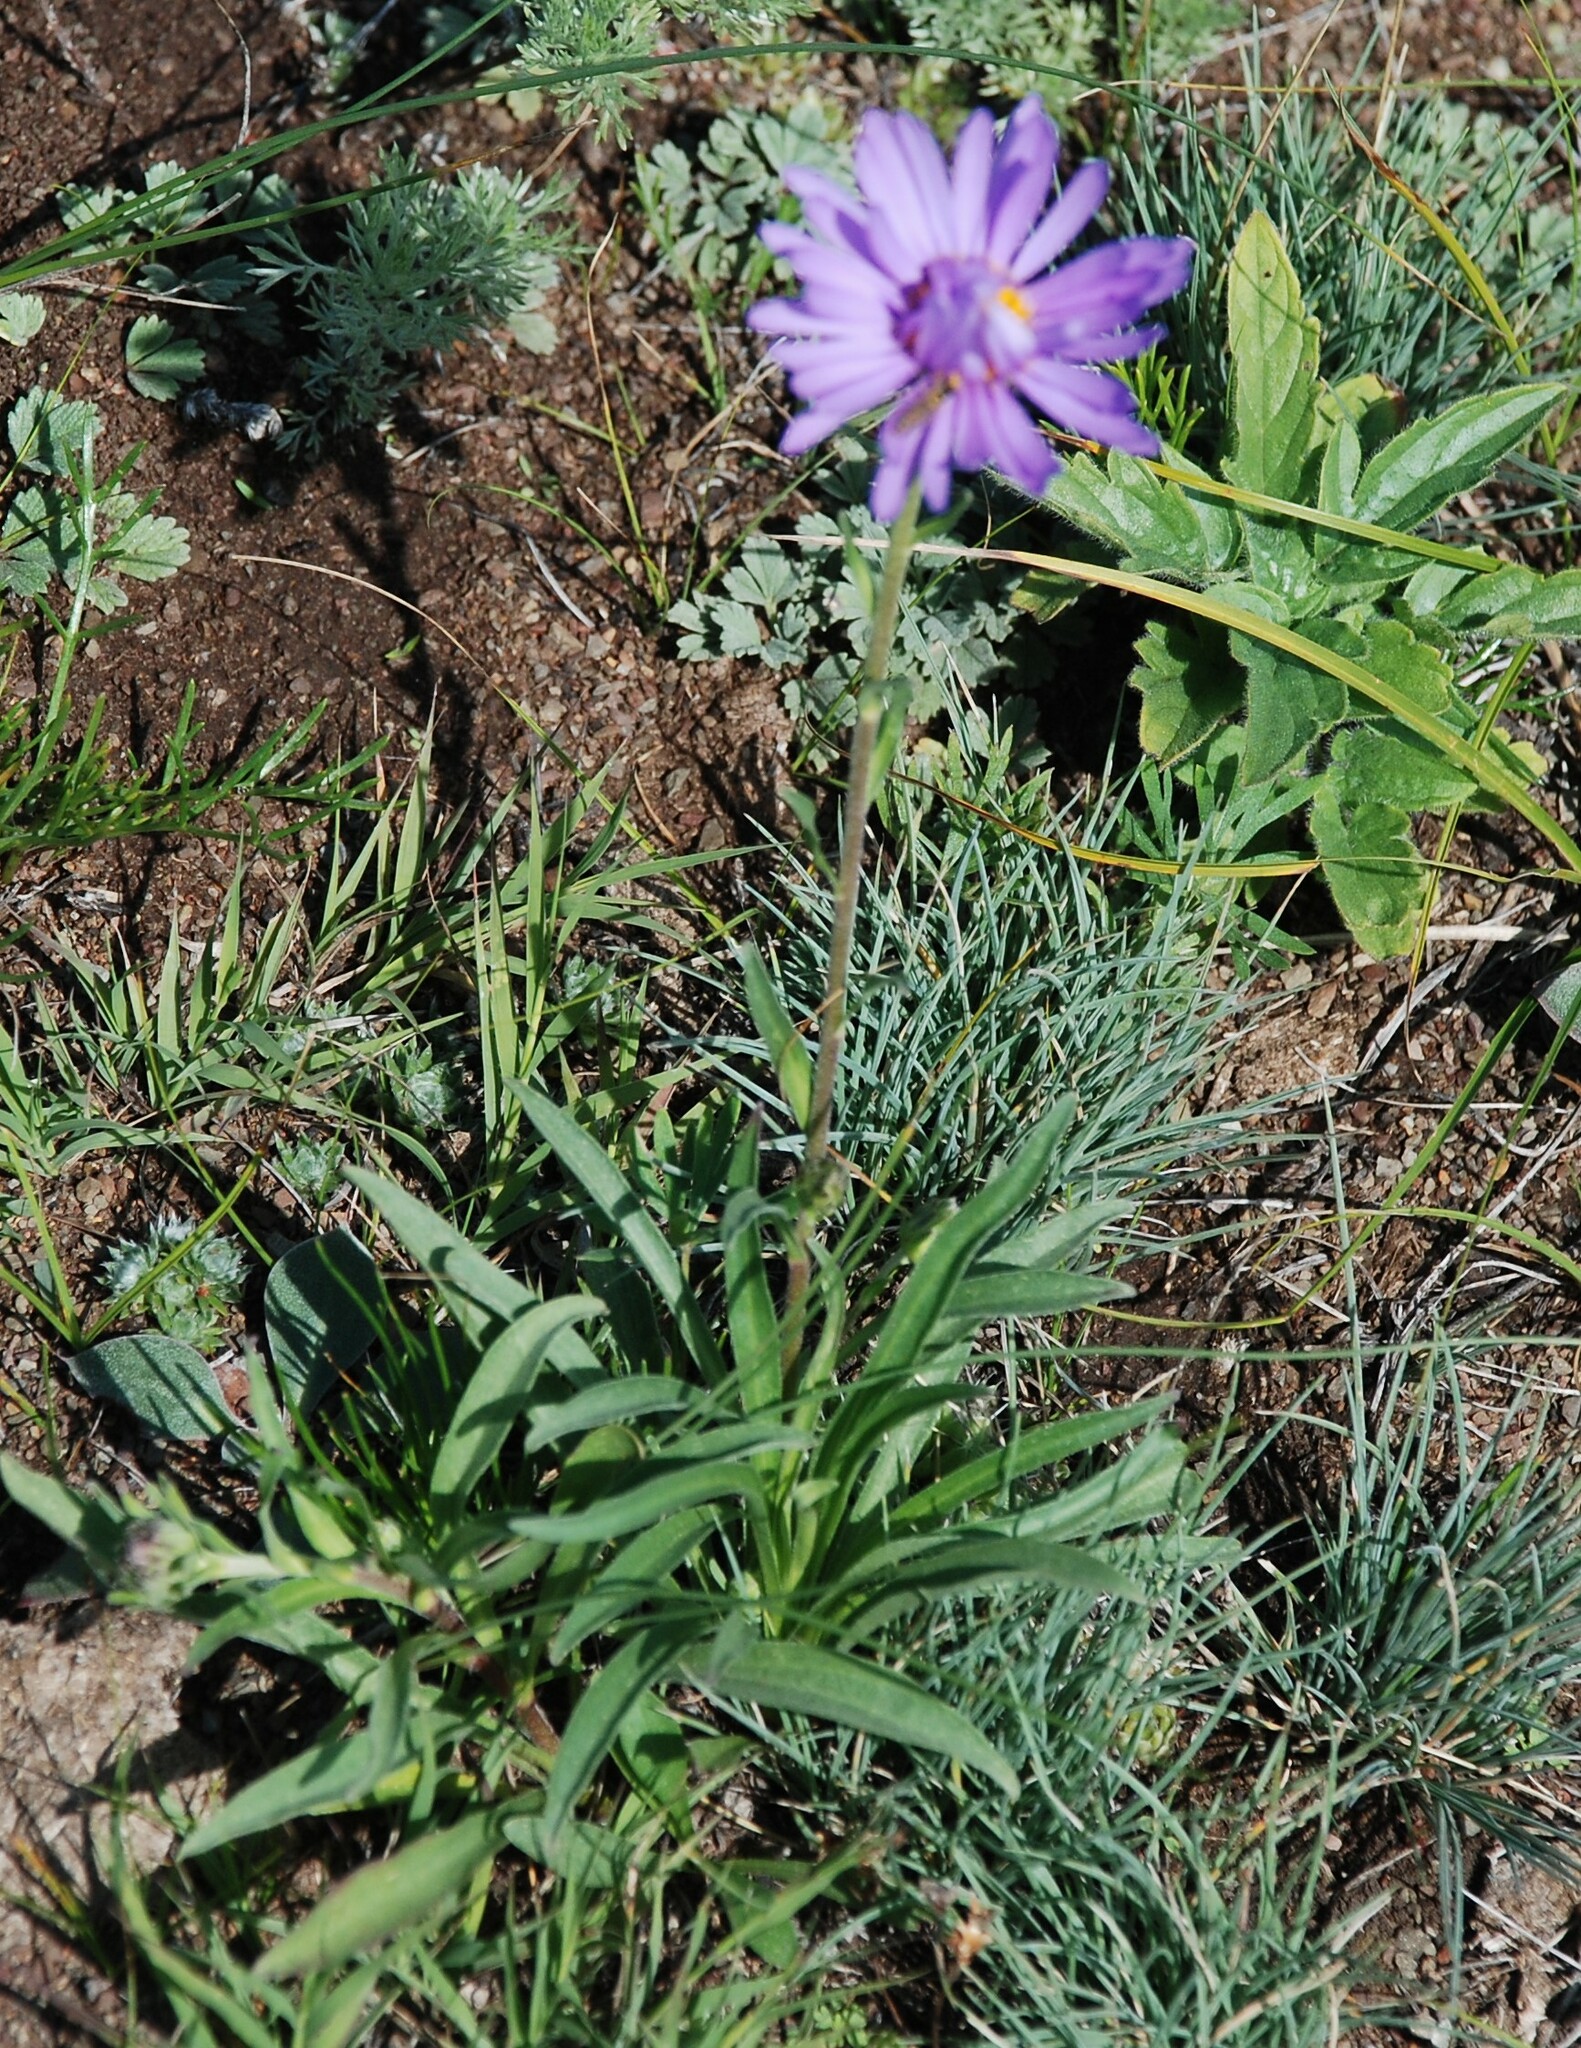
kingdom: Plantae
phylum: Tracheophyta
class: Magnoliopsida
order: Asterales
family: Asteraceae
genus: Aster
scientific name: Aster alpinus
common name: Alpine aster
